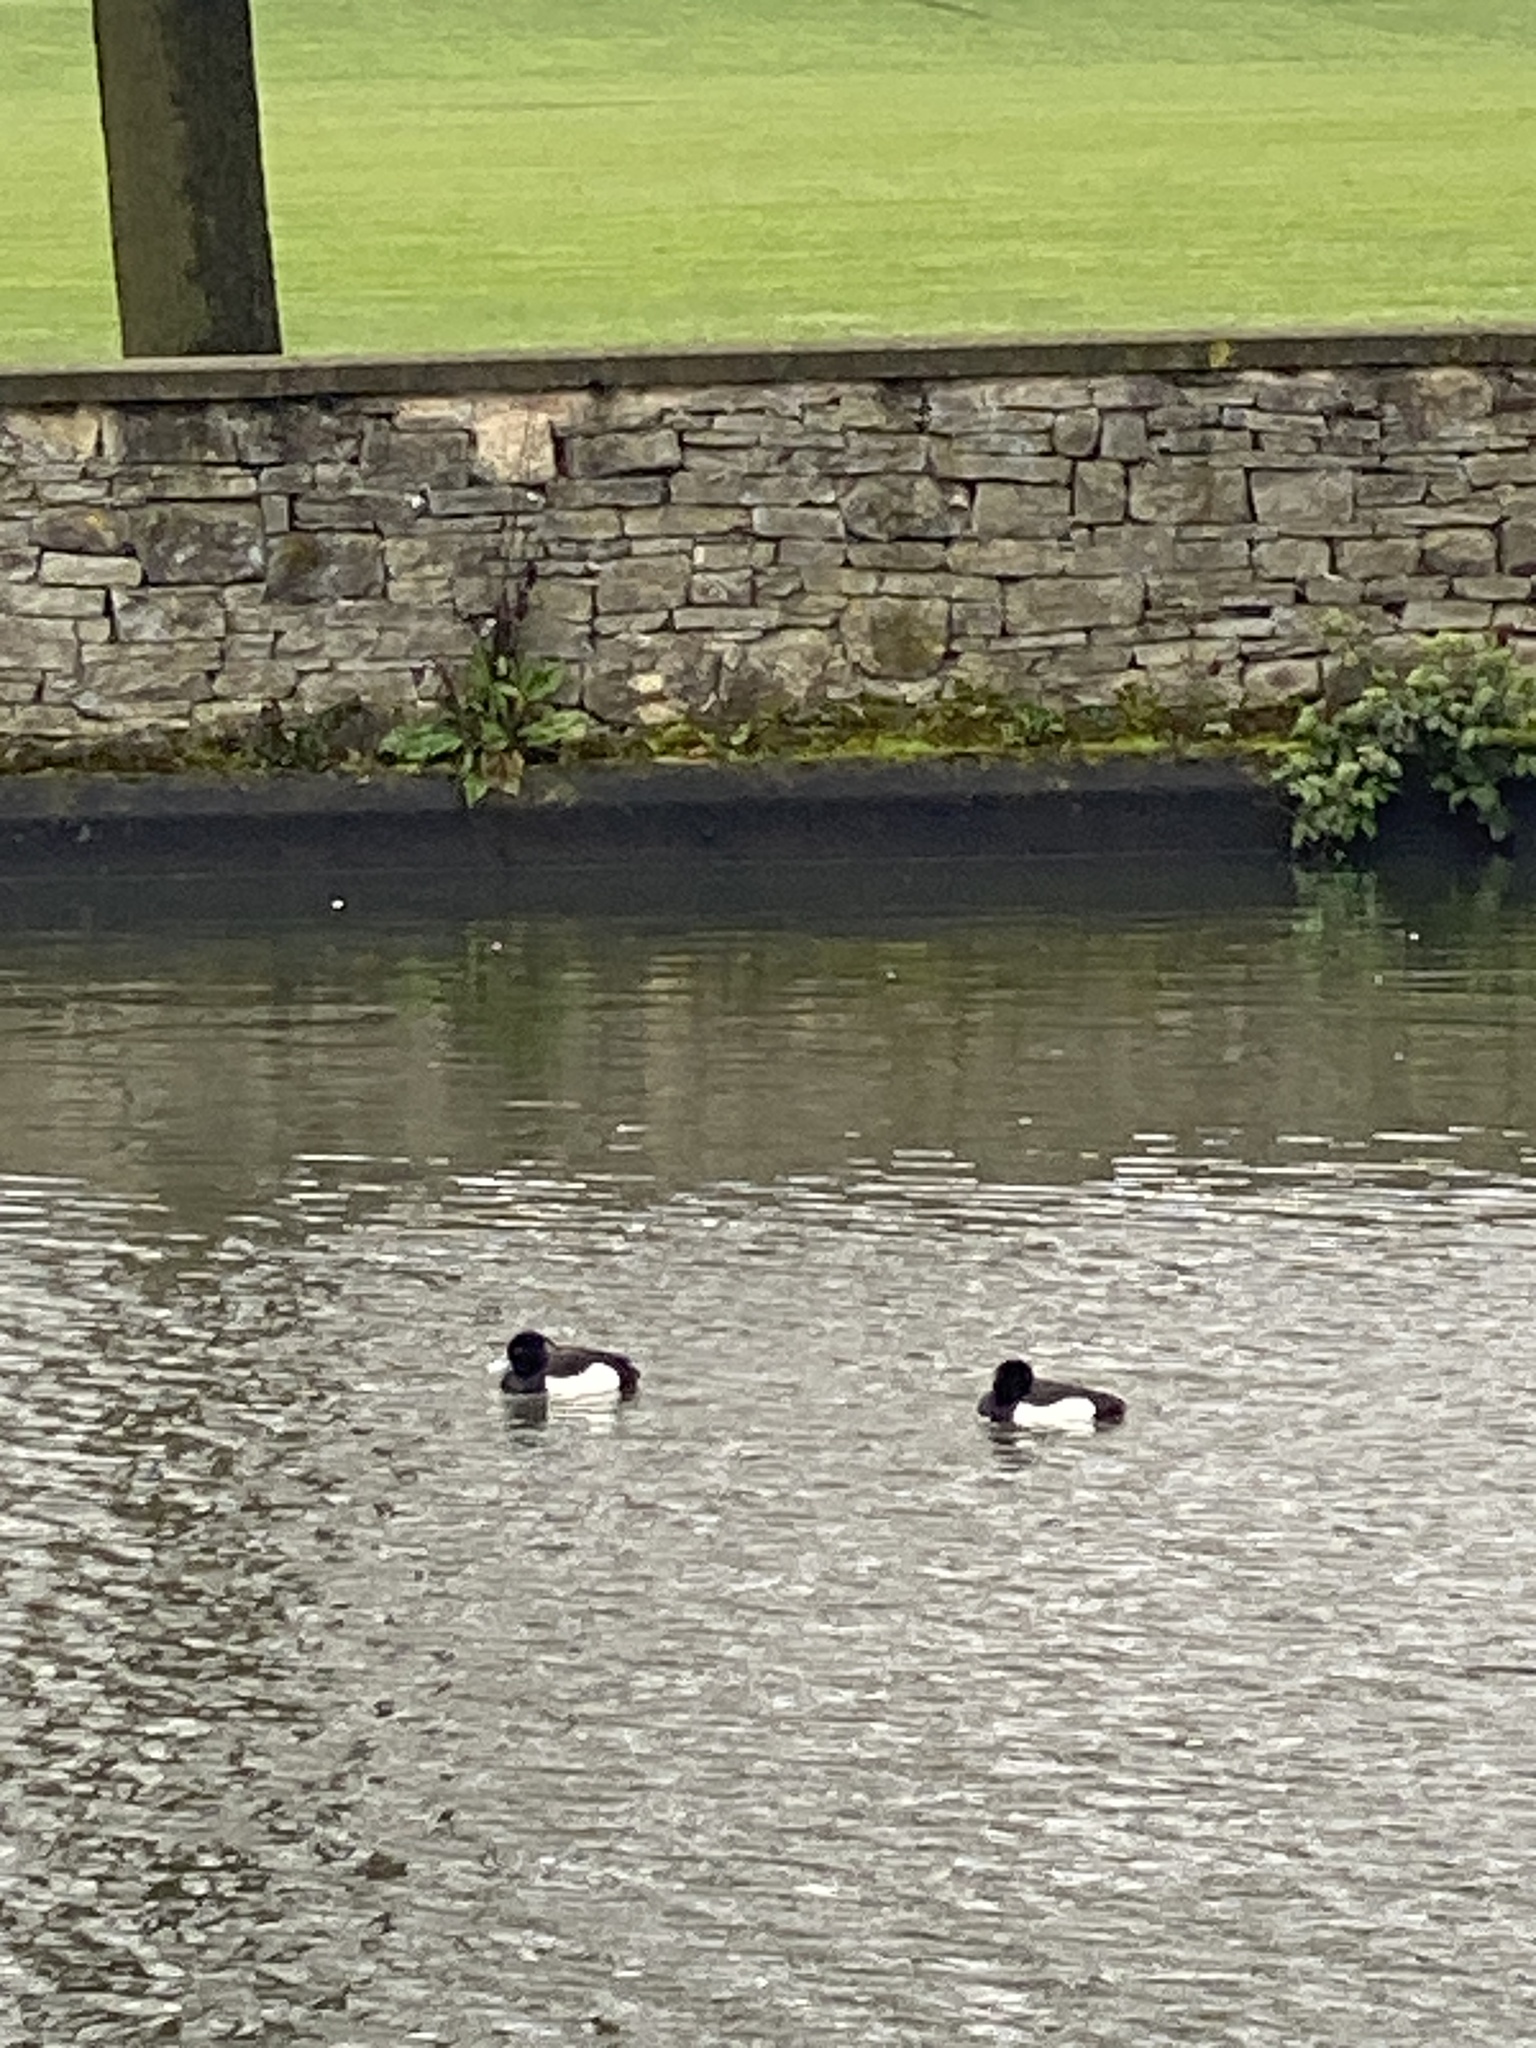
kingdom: Animalia
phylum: Chordata
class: Aves
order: Anseriformes
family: Anatidae
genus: Aythya
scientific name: Aythya fuligula
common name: Tufted duck
